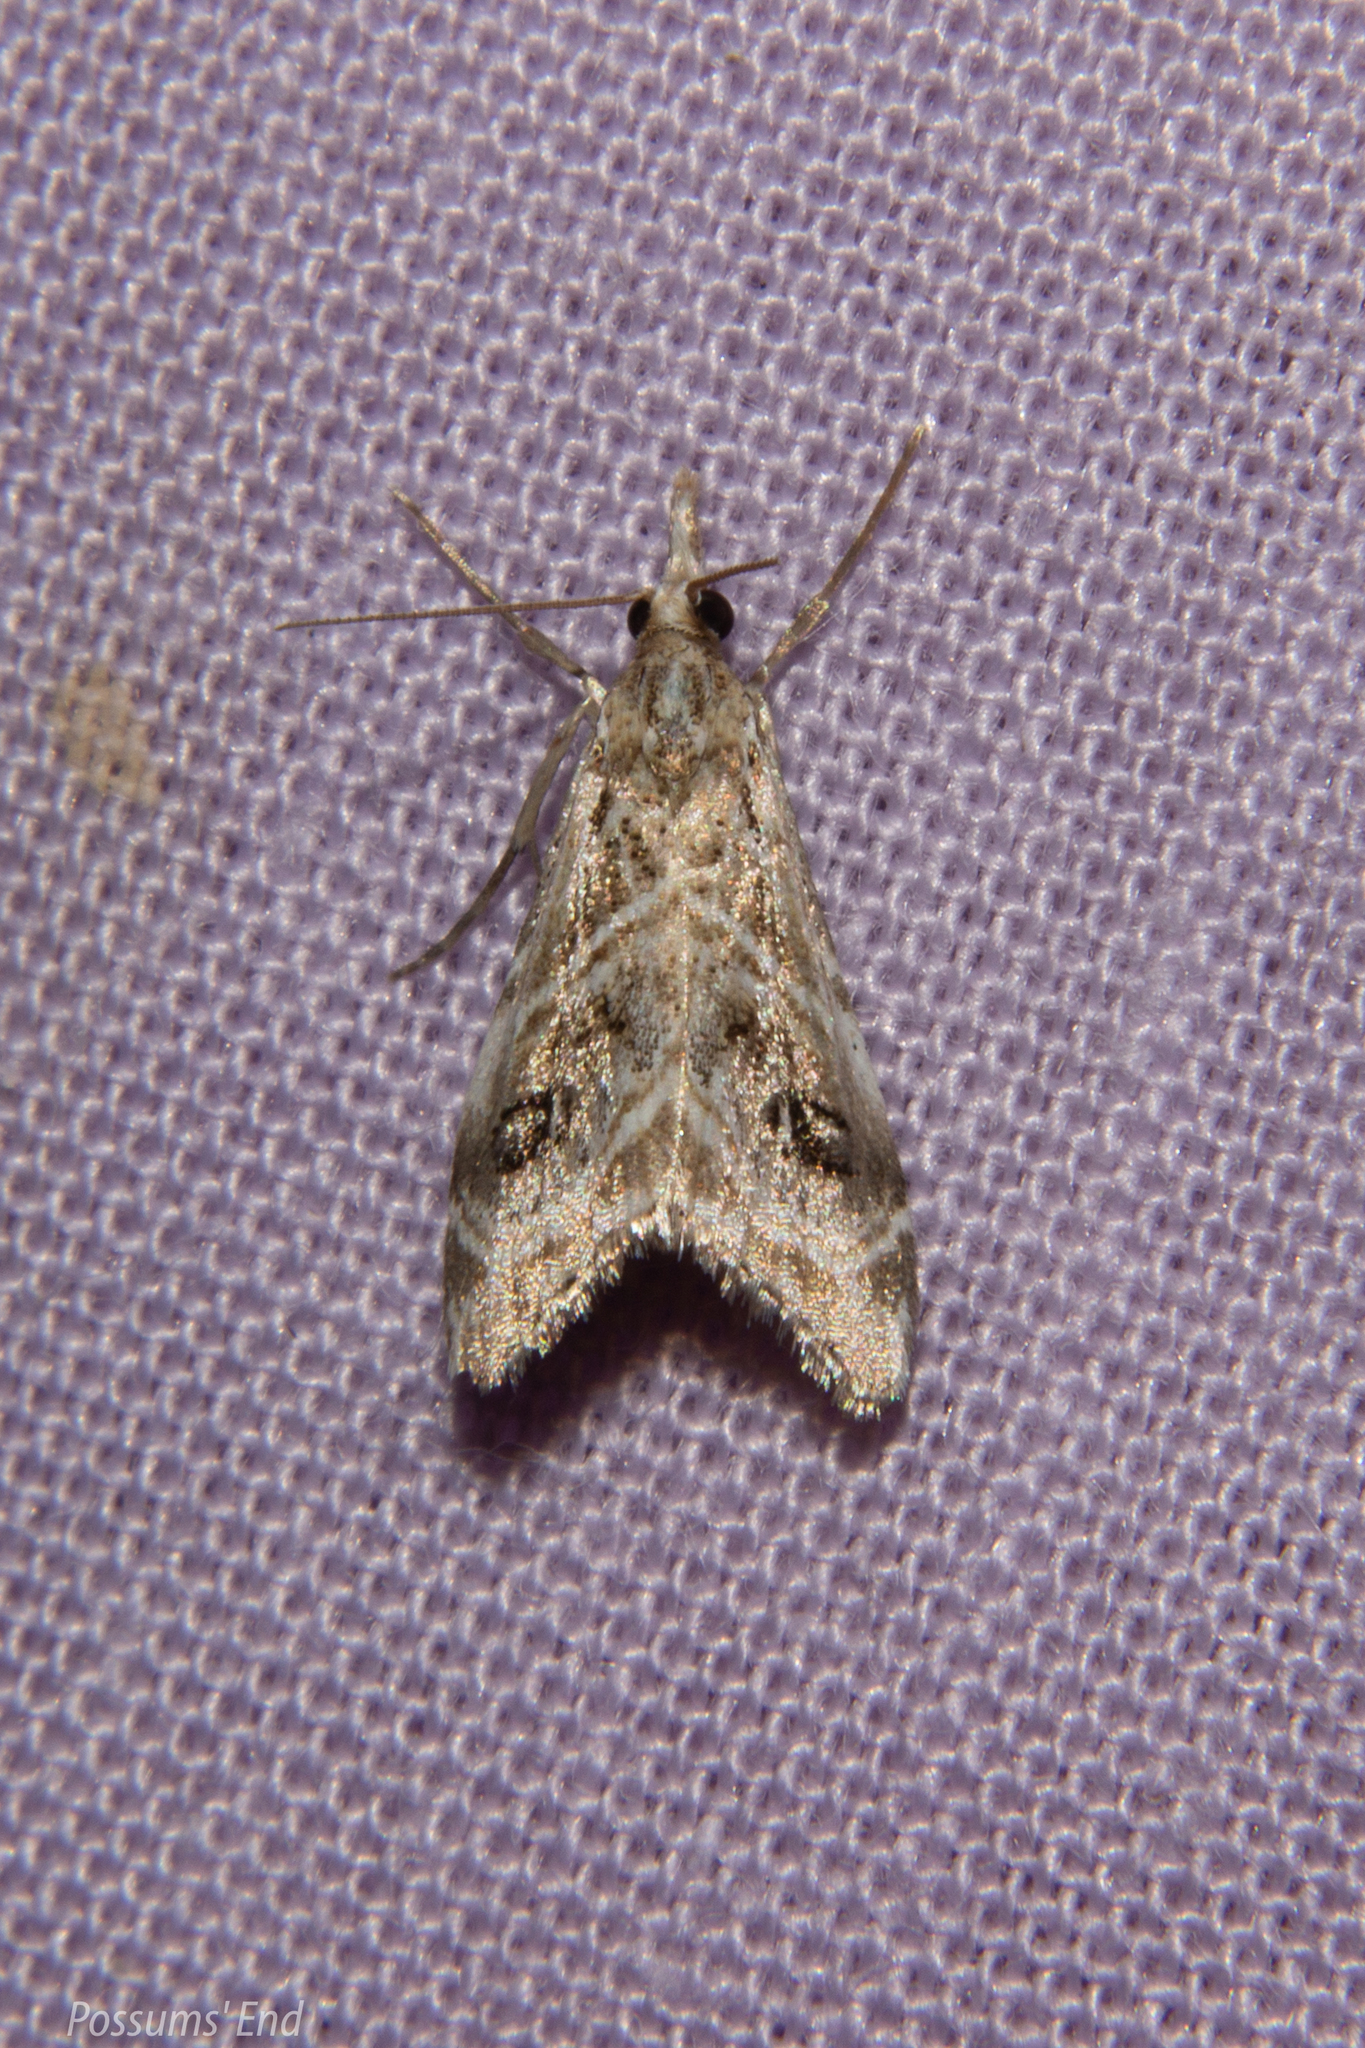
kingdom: Animalia
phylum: Arthropoda
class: Insecta
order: Lepidoptera
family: Crambidae
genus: Gadira
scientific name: Gadira acerella
